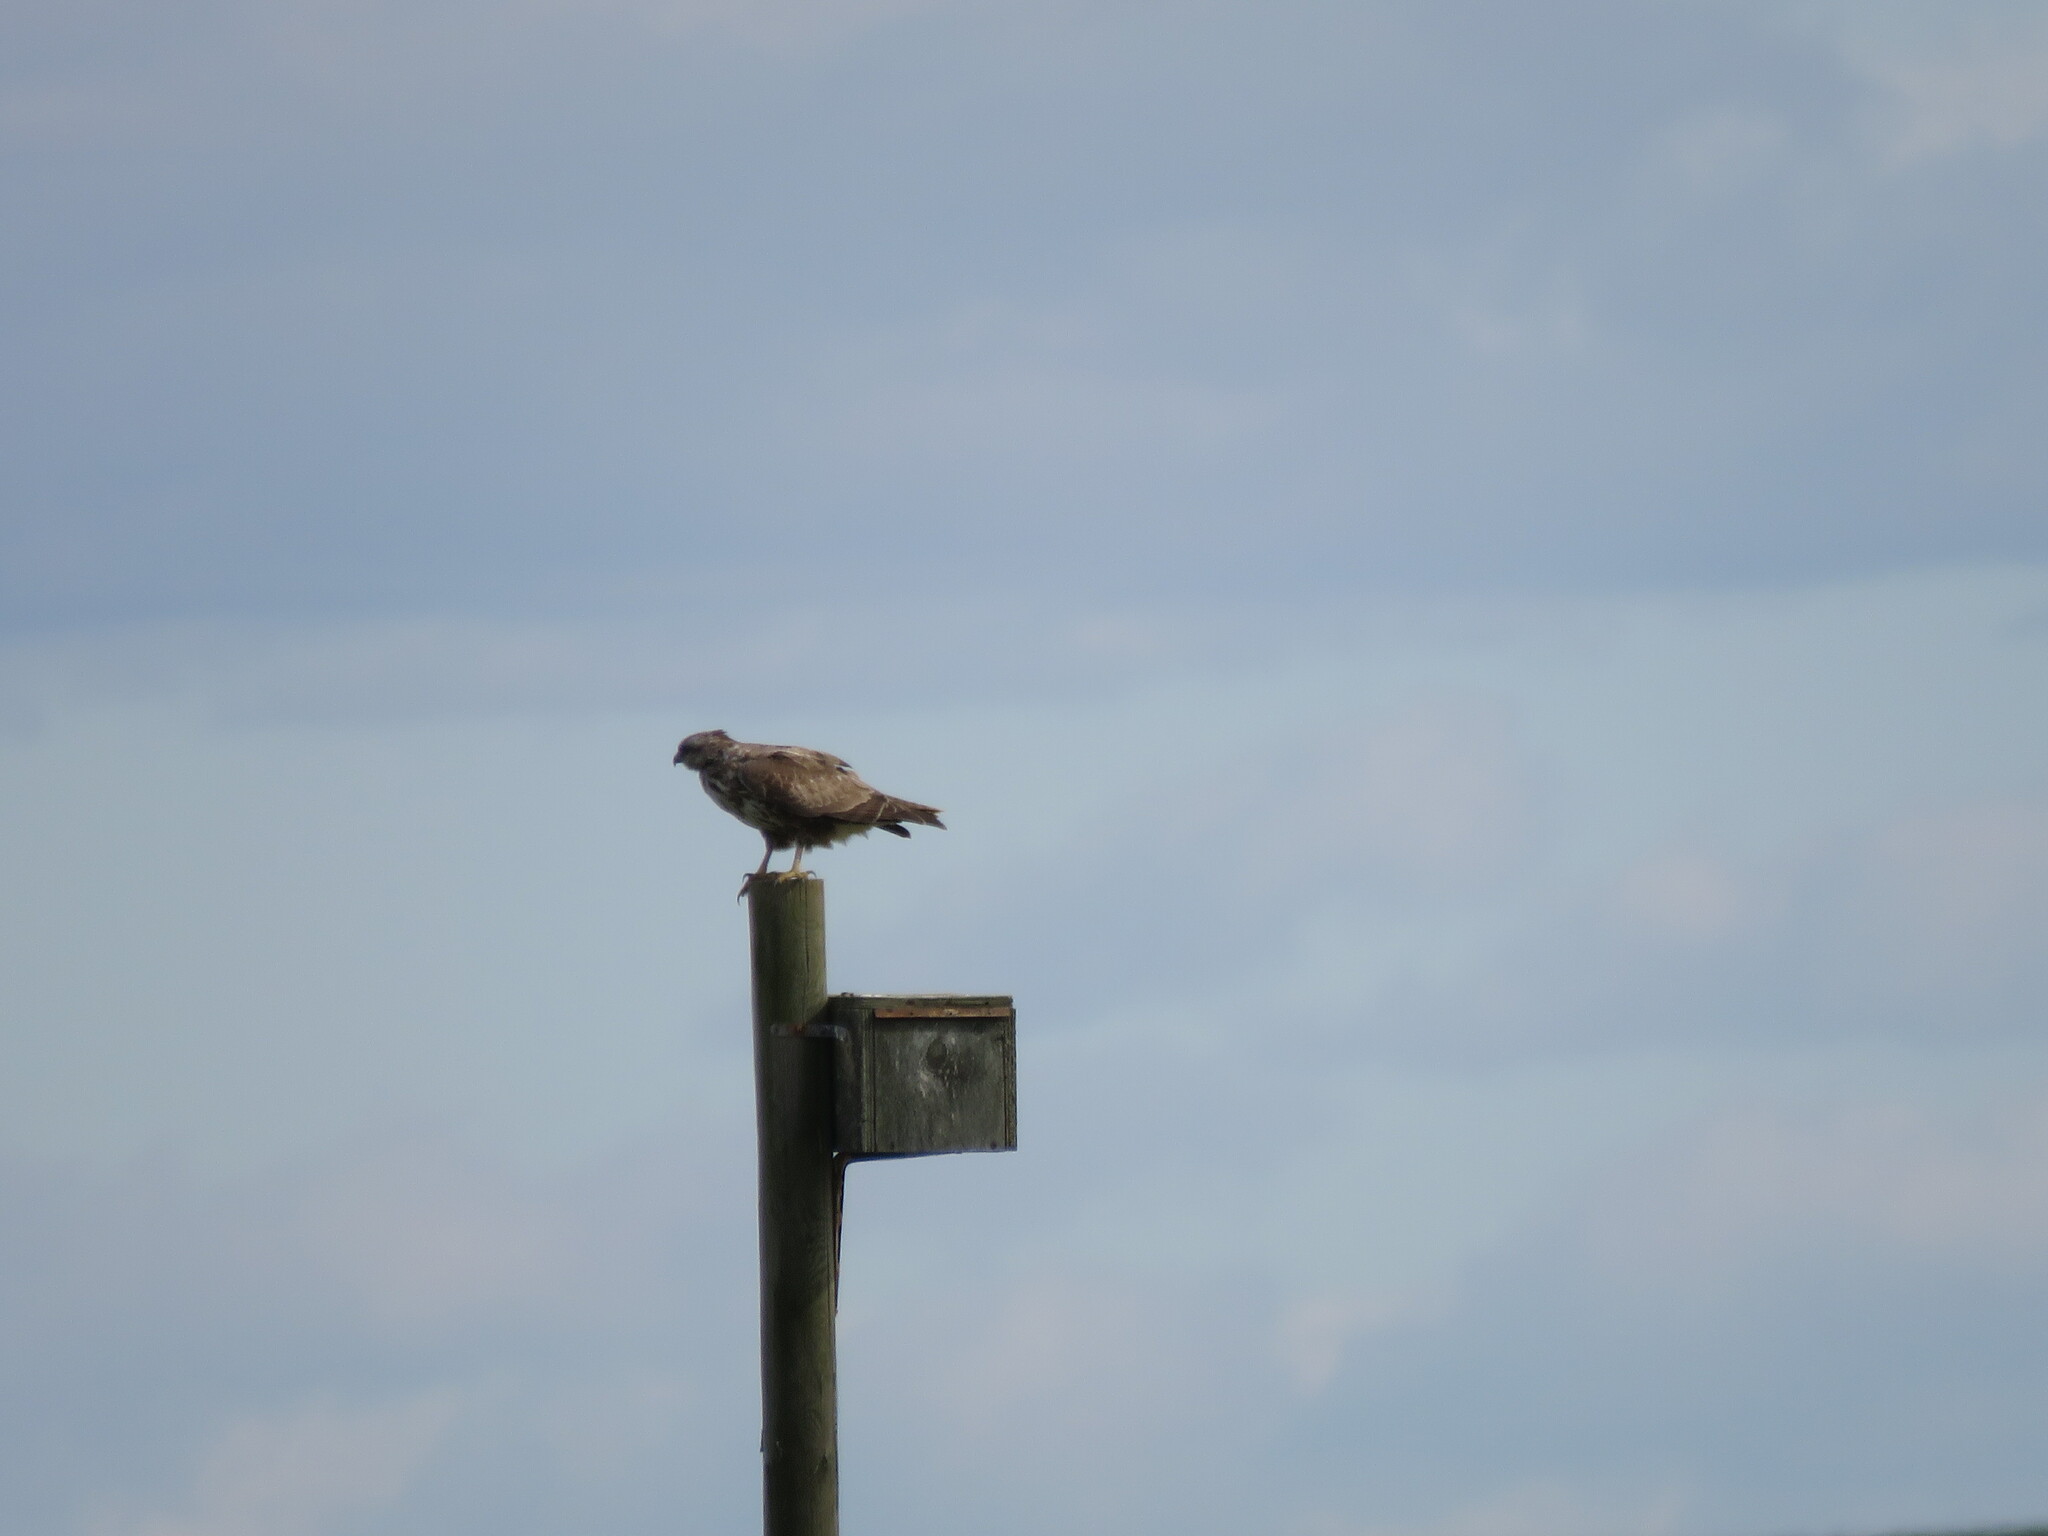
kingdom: Animalia
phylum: Chordata
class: Aves
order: Accipitriformes
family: Accipitridae
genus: Buteo
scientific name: Buteo buteo
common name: Common buzzard
